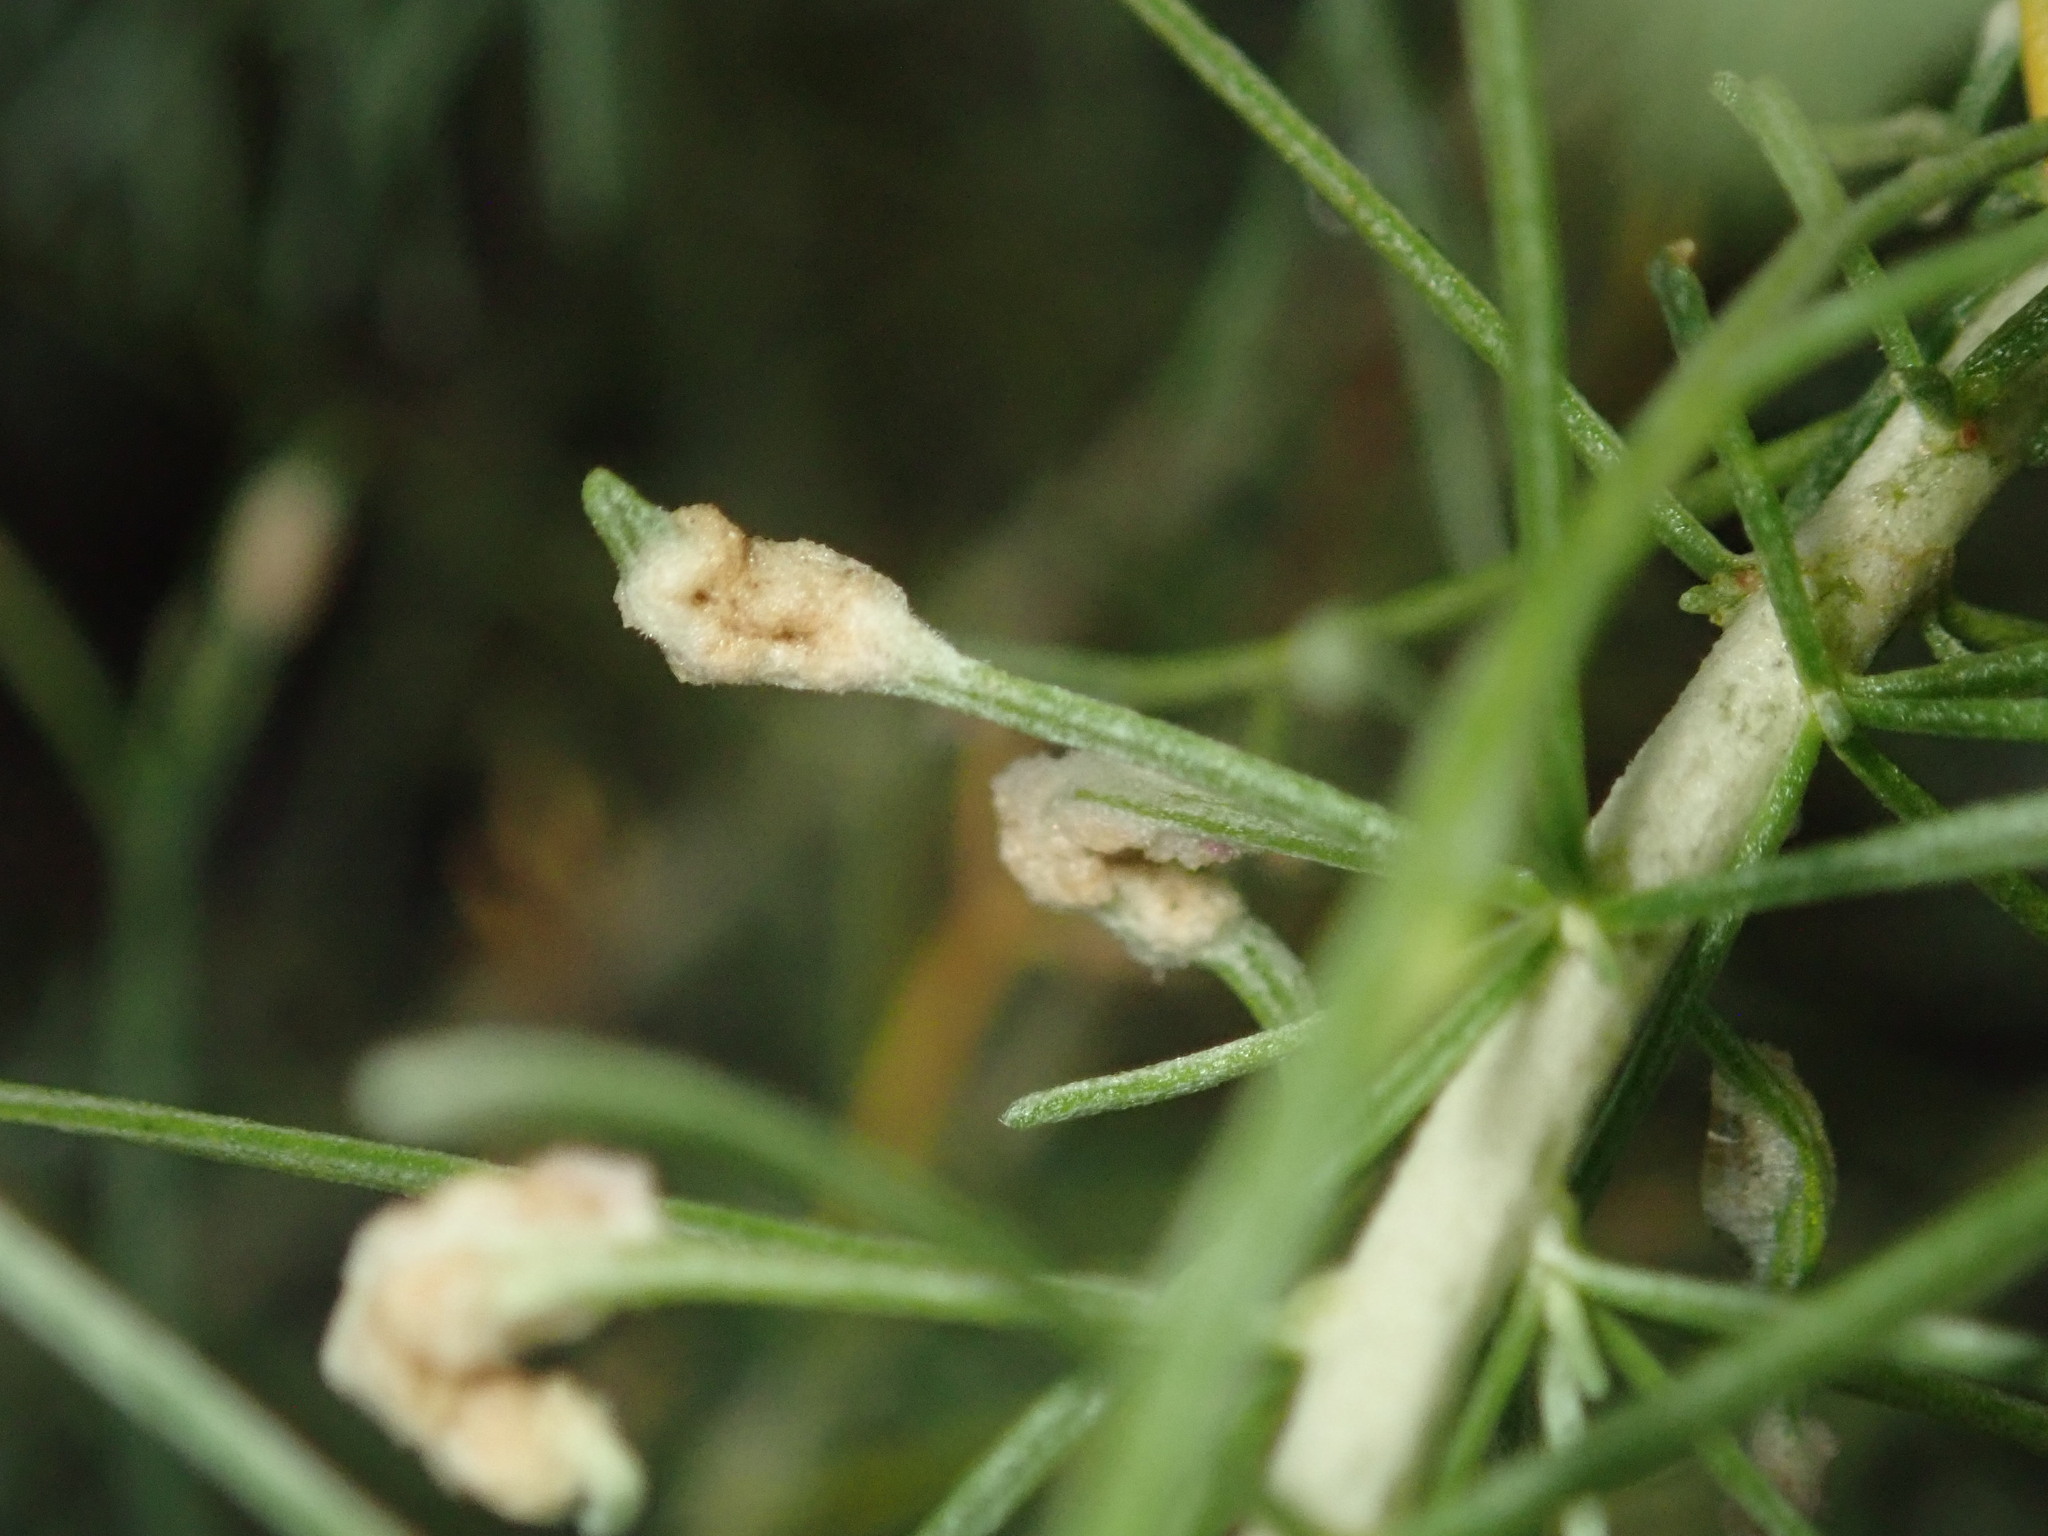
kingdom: Animalia
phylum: Arthropoda
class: Arachnida
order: Trombidiformes
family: Eriophyidae
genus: Aceria
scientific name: Aceria
